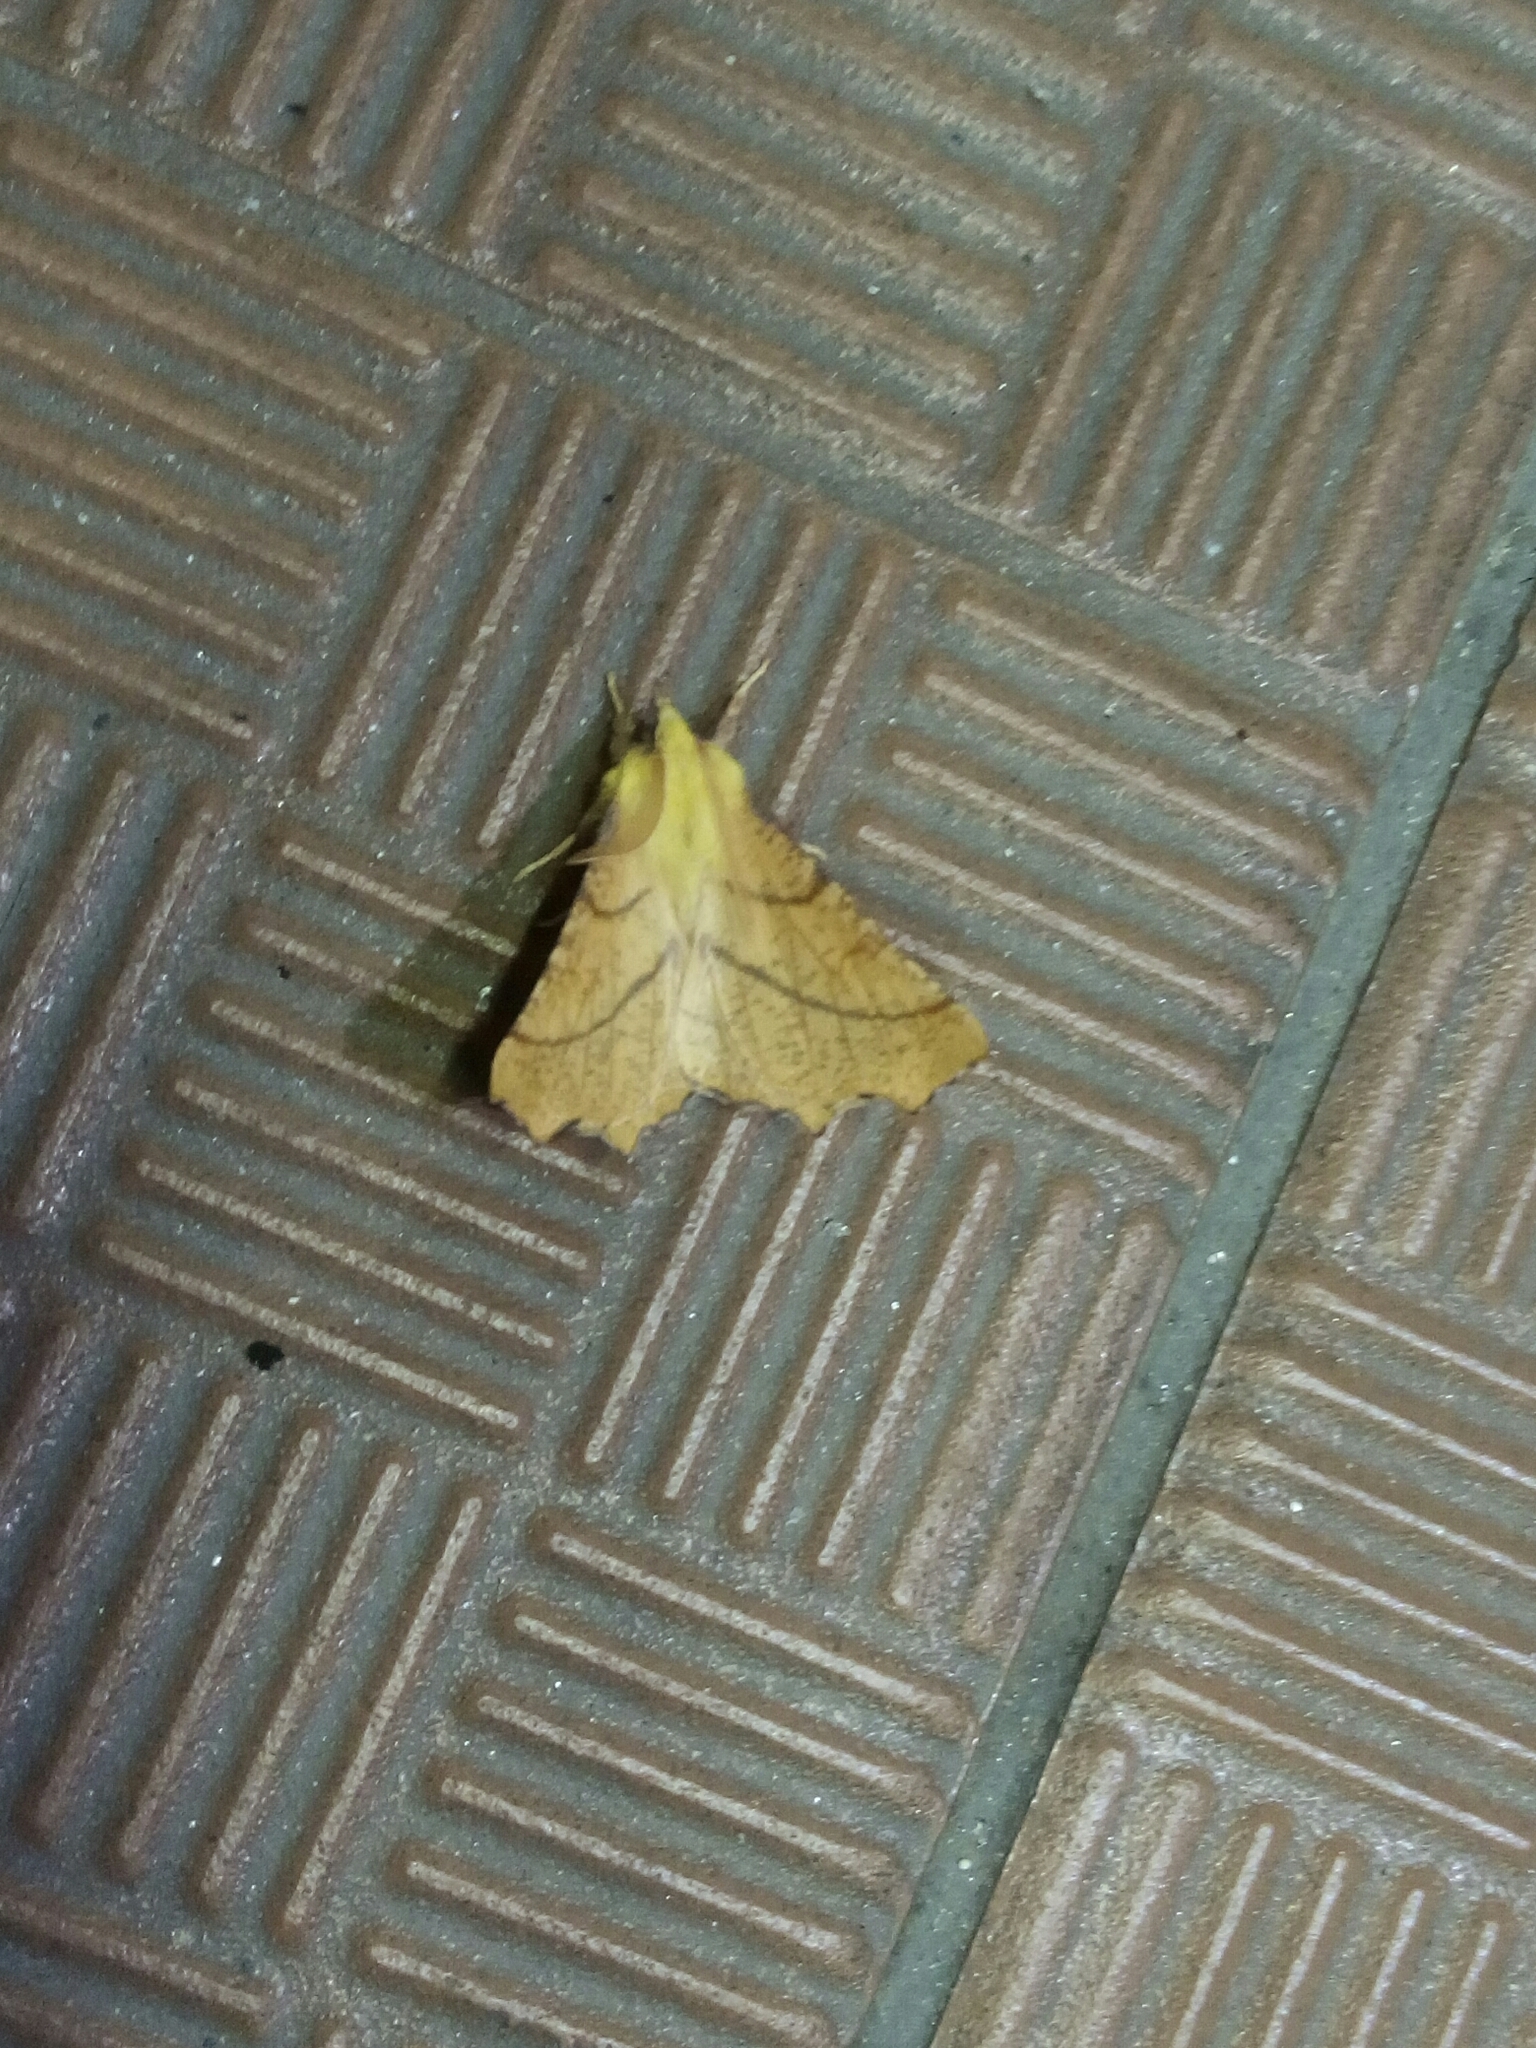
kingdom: Animalia
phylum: Arthropoda
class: Insecta
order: Lepidoptera
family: Geometridae
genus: Ennomos
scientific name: Ennomos alniaria
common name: Canary-shouldered thorn
